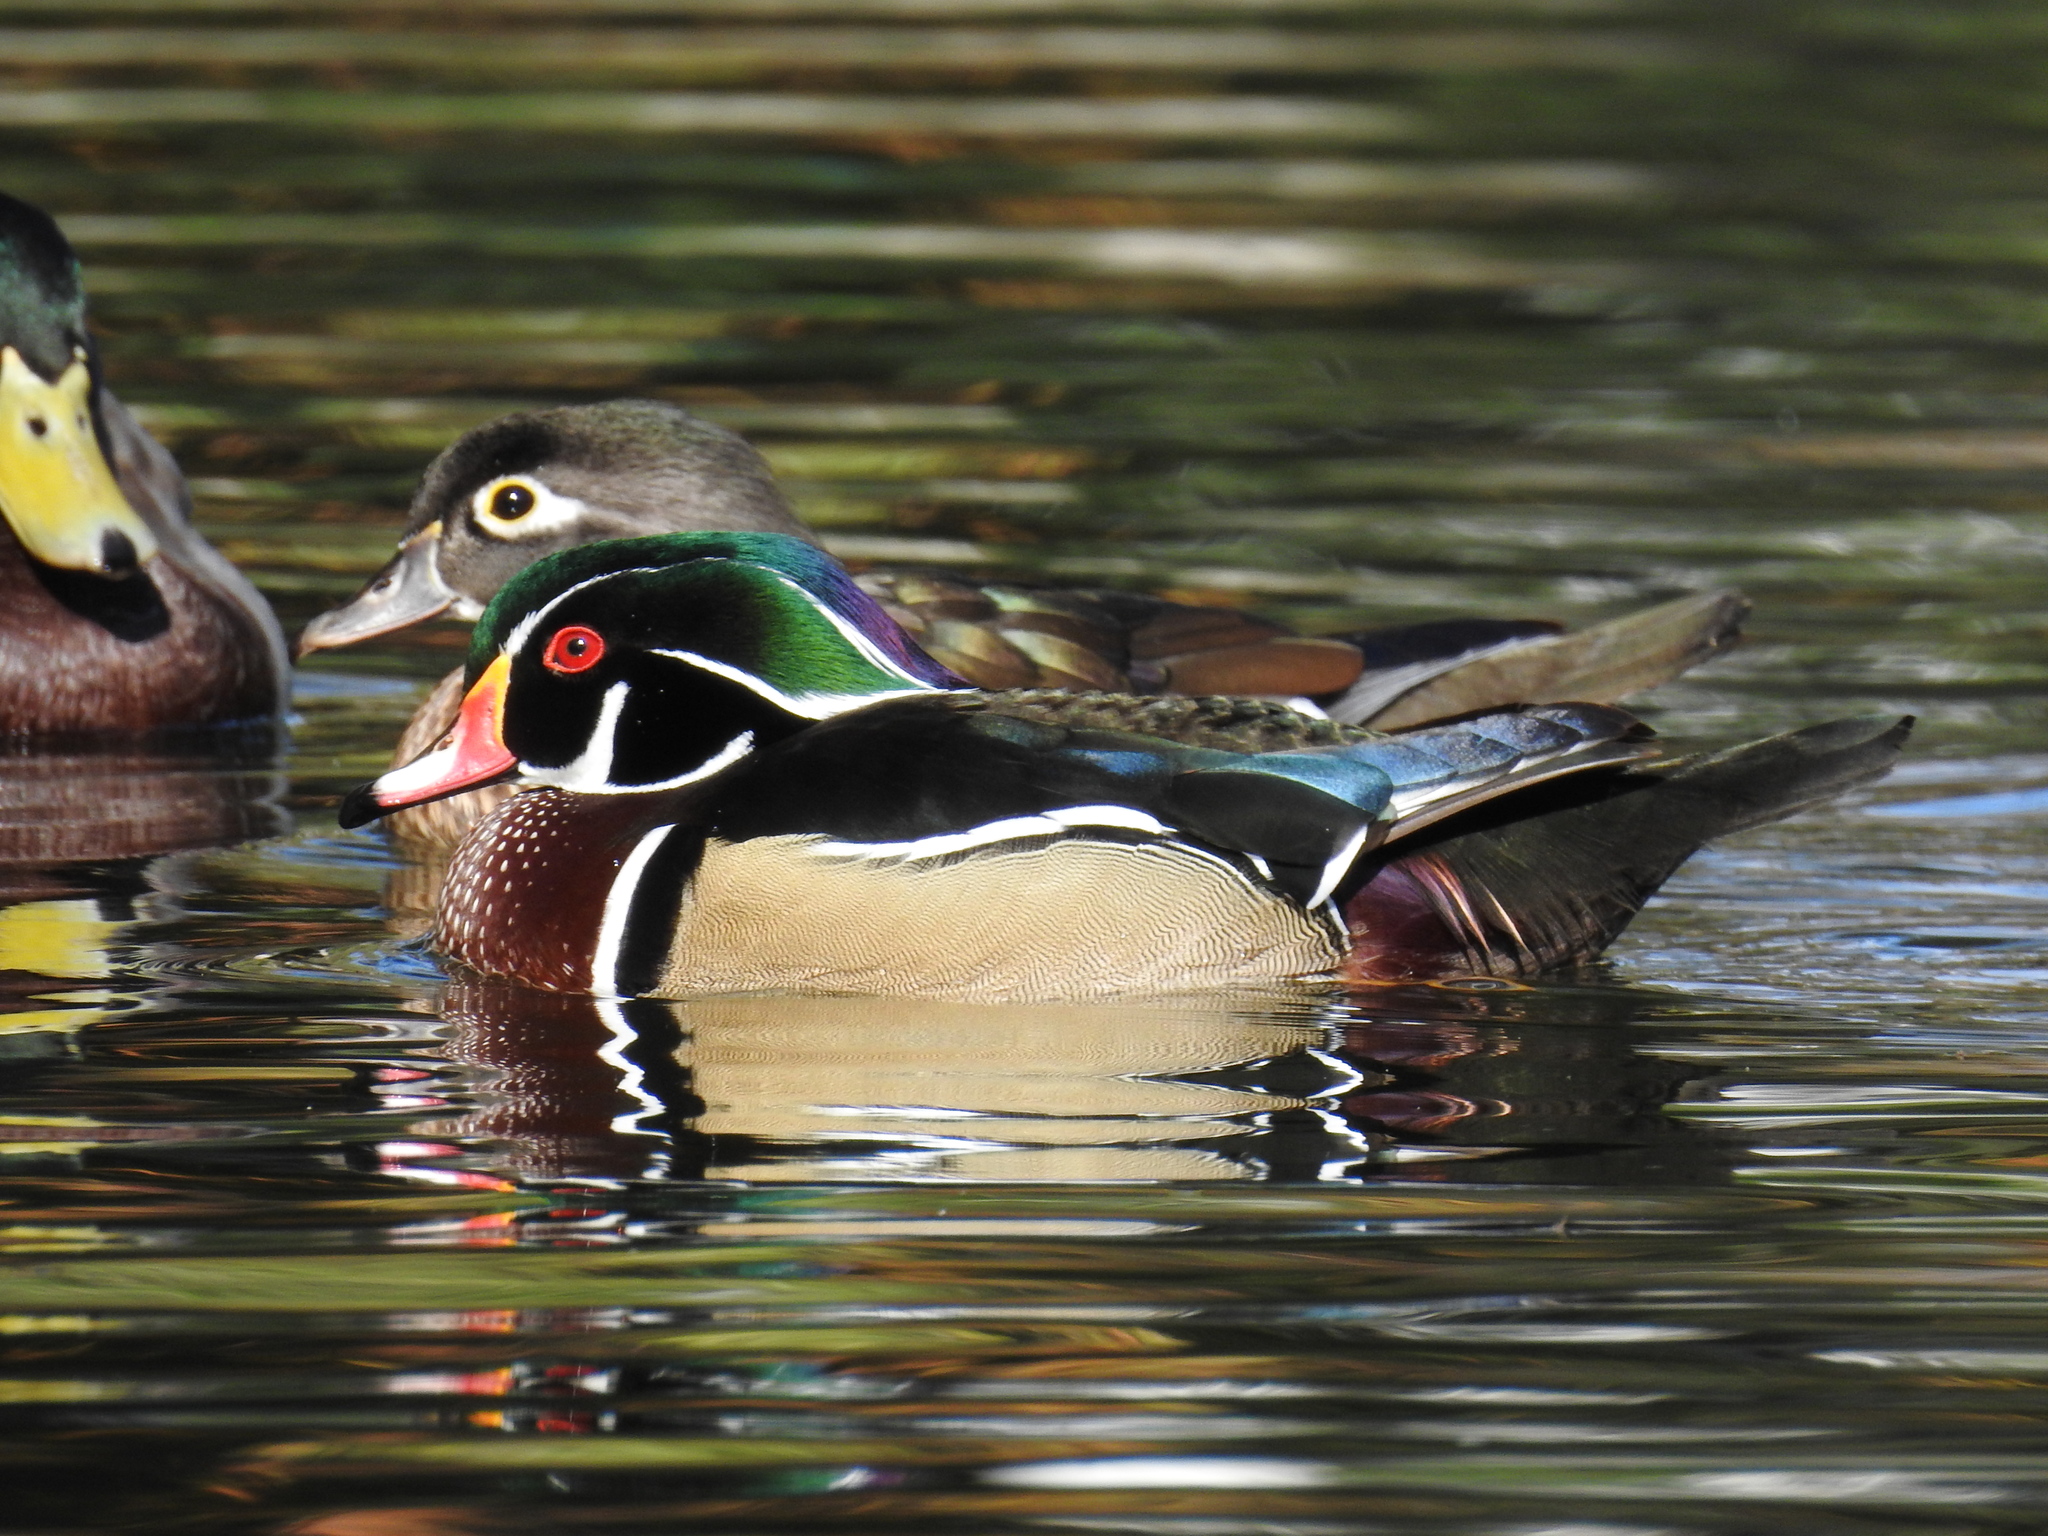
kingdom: Animalia
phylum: Chordata
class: Aves
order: Anseriformes
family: Anatidae
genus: Aix
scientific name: Aix sponsa
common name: Wood duck
